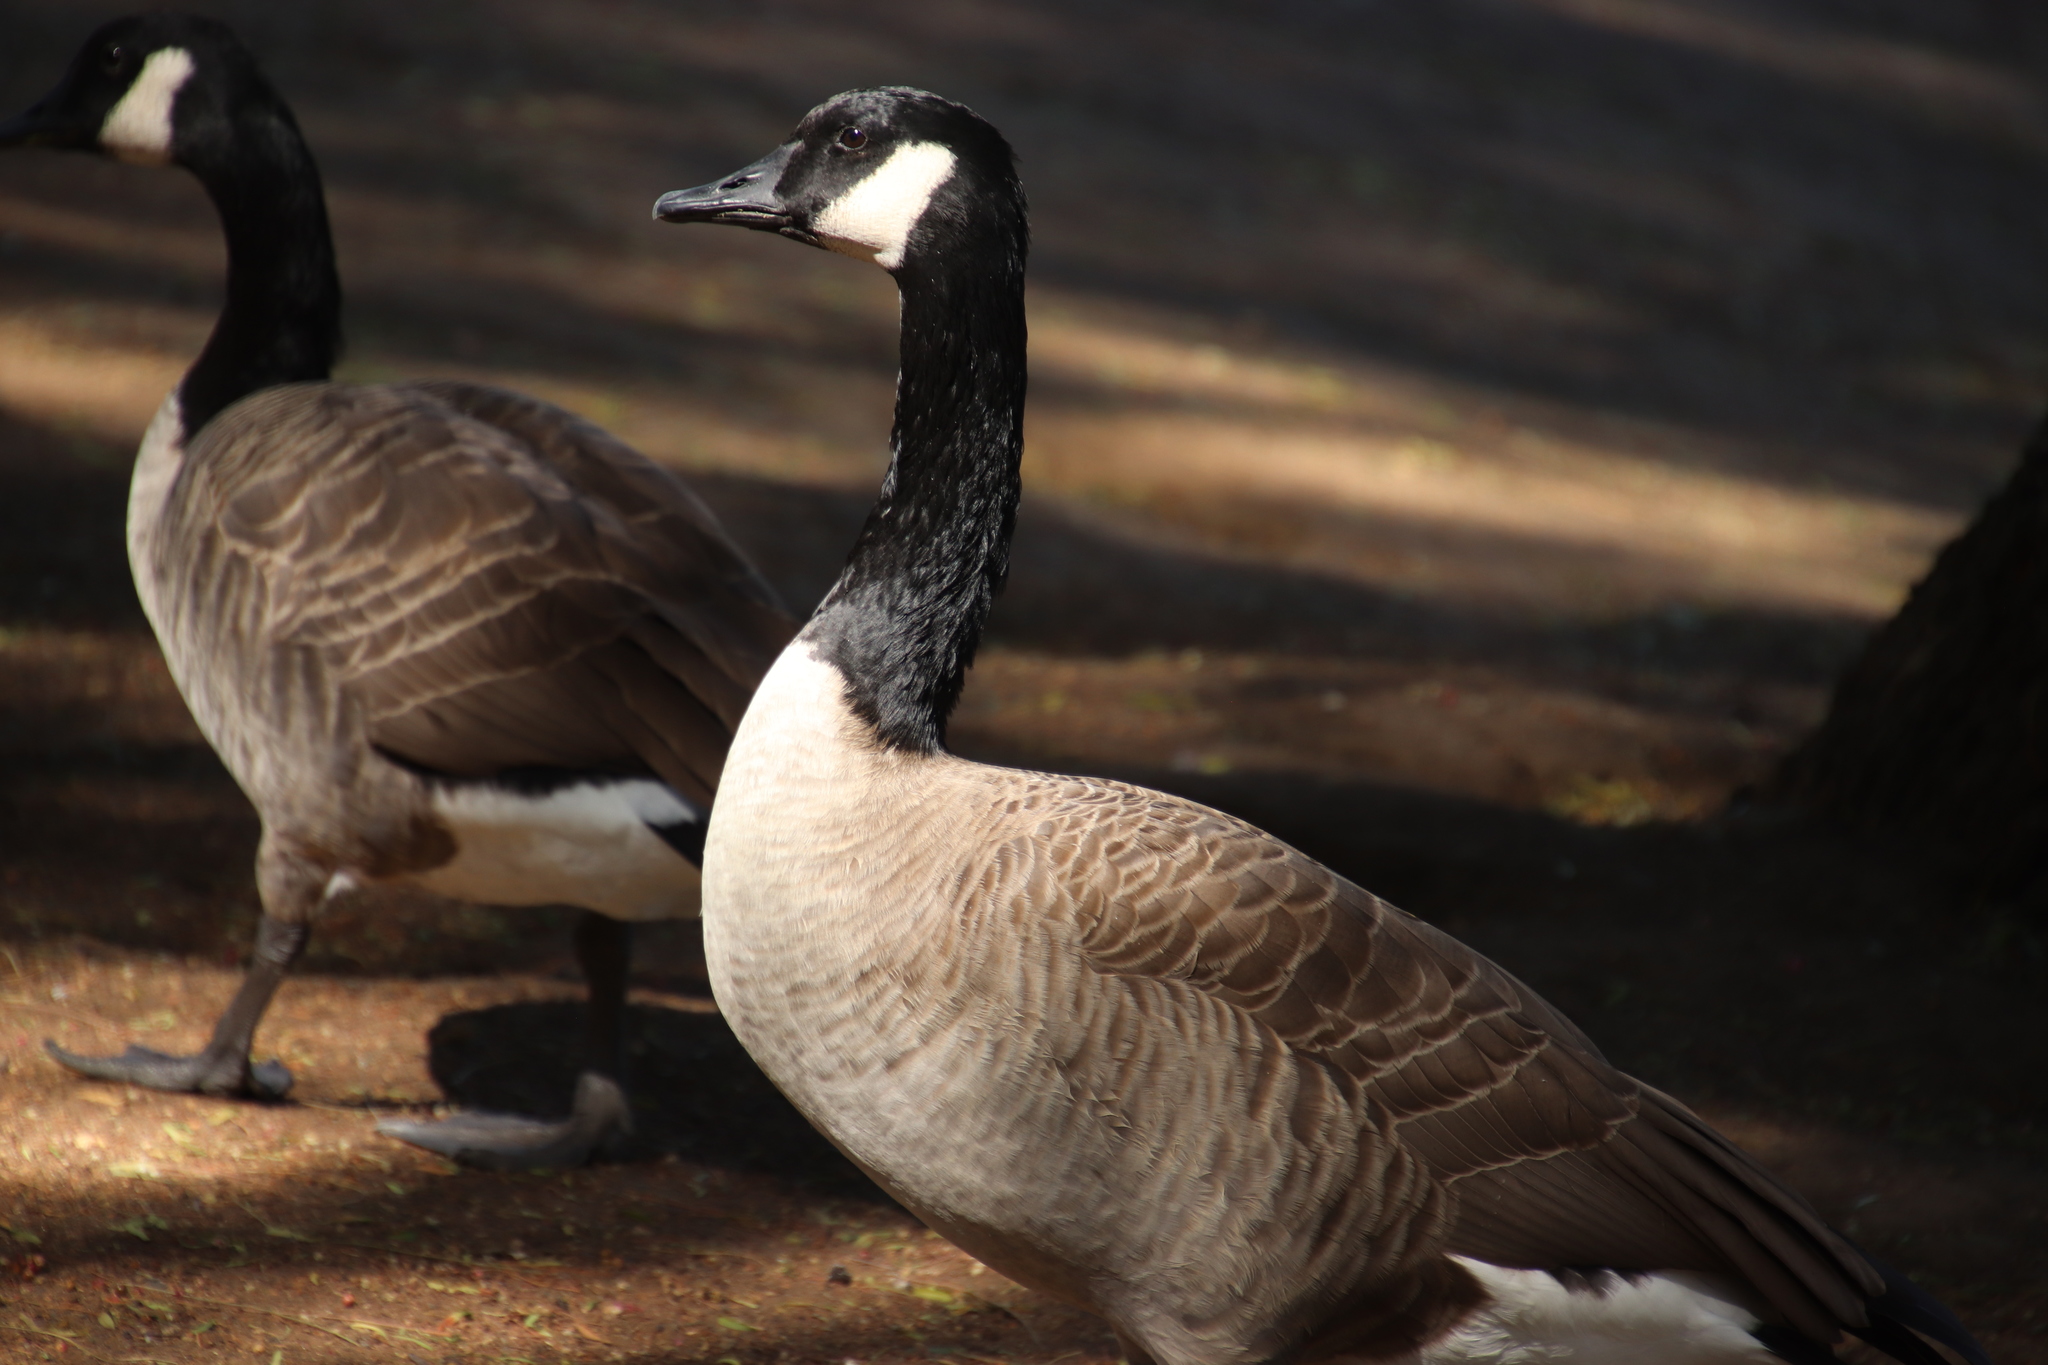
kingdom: Animalia
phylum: Chordata
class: Aves
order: Anseriformes
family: Anatidae
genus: Branta
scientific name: Branta canadensis
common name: Canada goose
